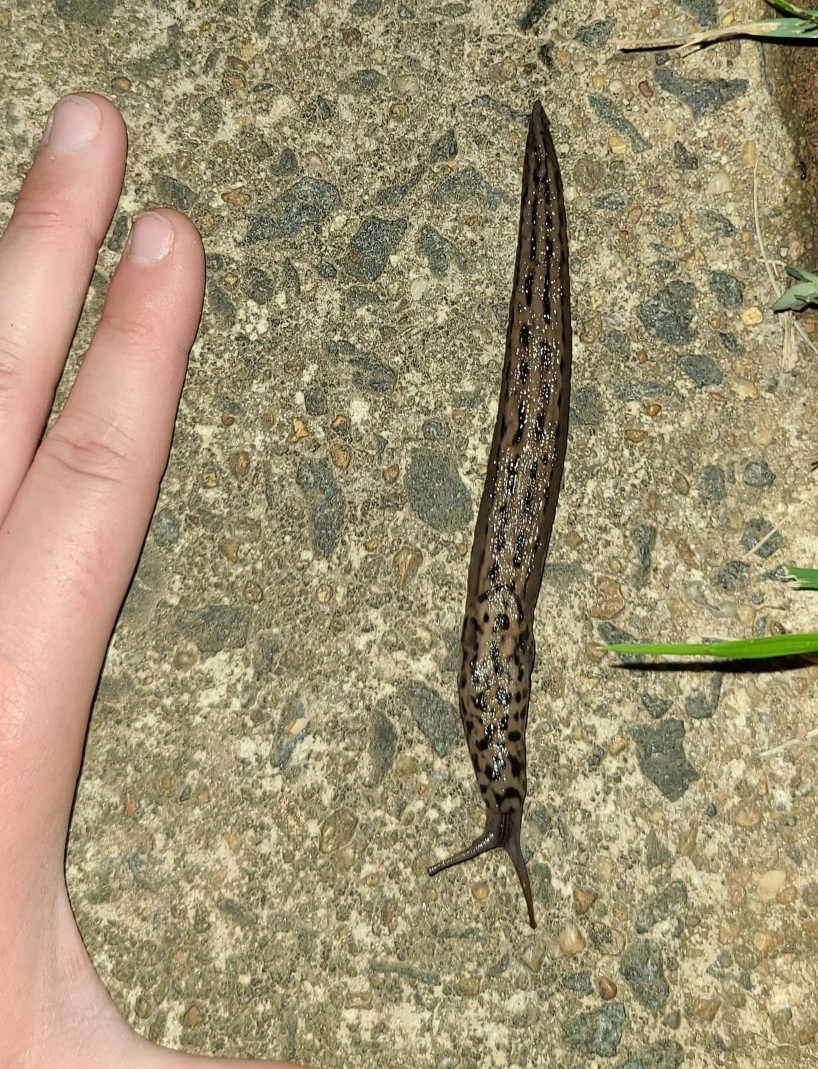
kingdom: Animalia
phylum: Mollusca
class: Gastropoda
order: Stylommatophora
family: Limacidae
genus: Limax
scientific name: Limax maximus
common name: Great grey slug
